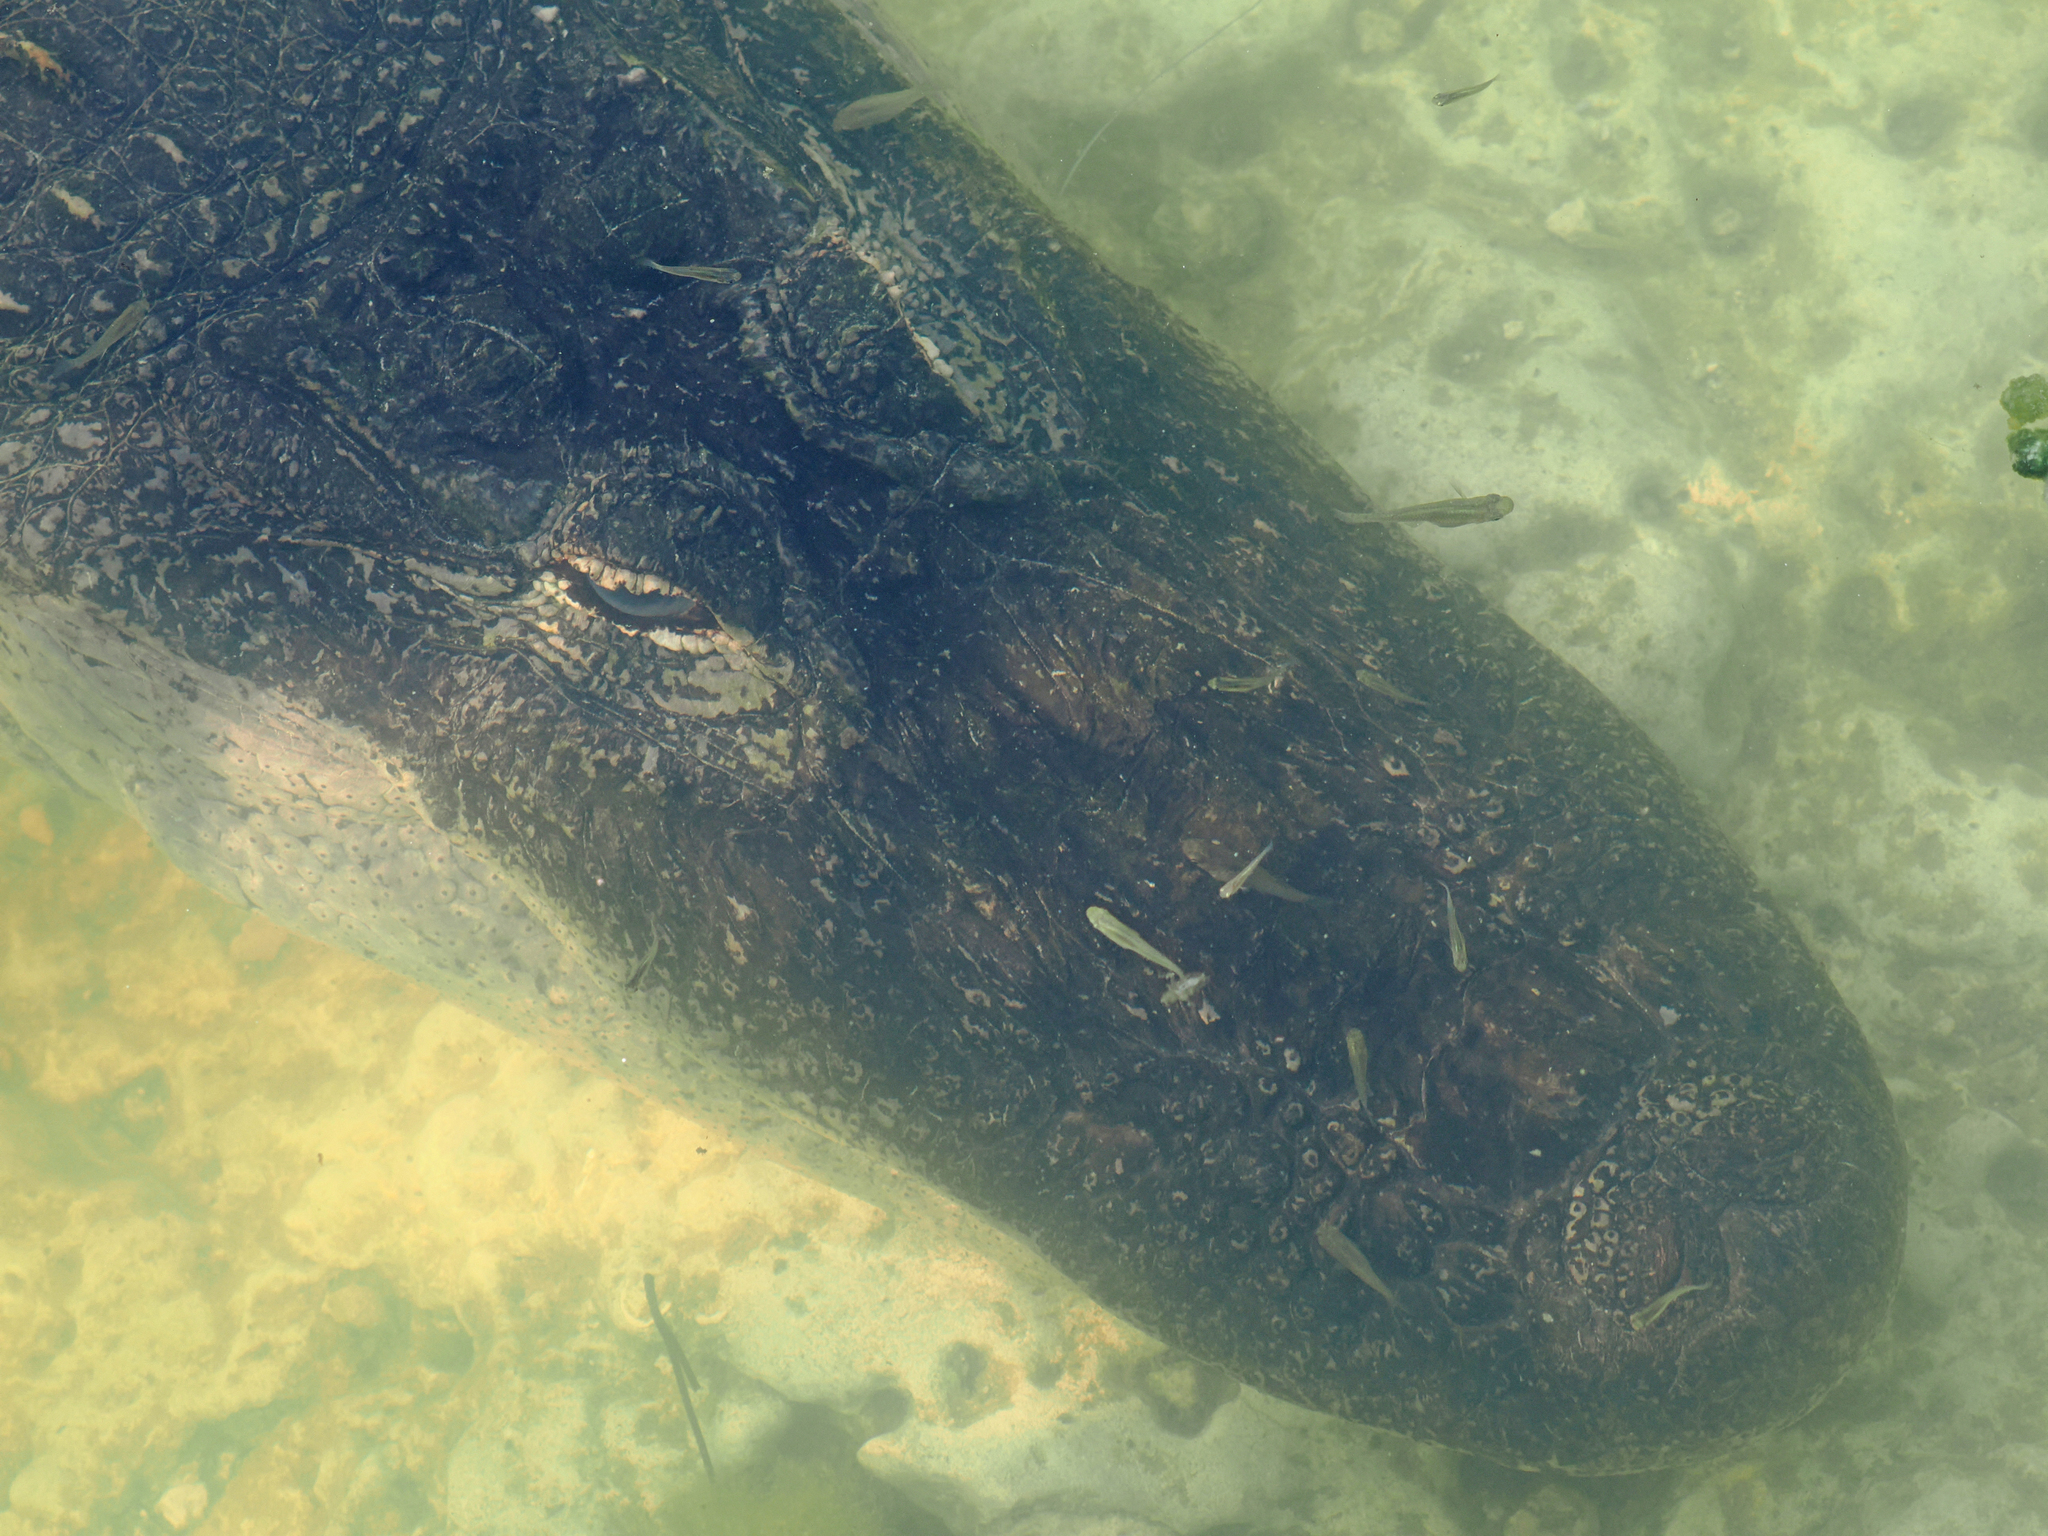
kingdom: Animalia
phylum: Chordata
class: Crocodylia
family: Alligatoridae
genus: Alligator
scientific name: Alligator mississippiensis
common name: American alligator
